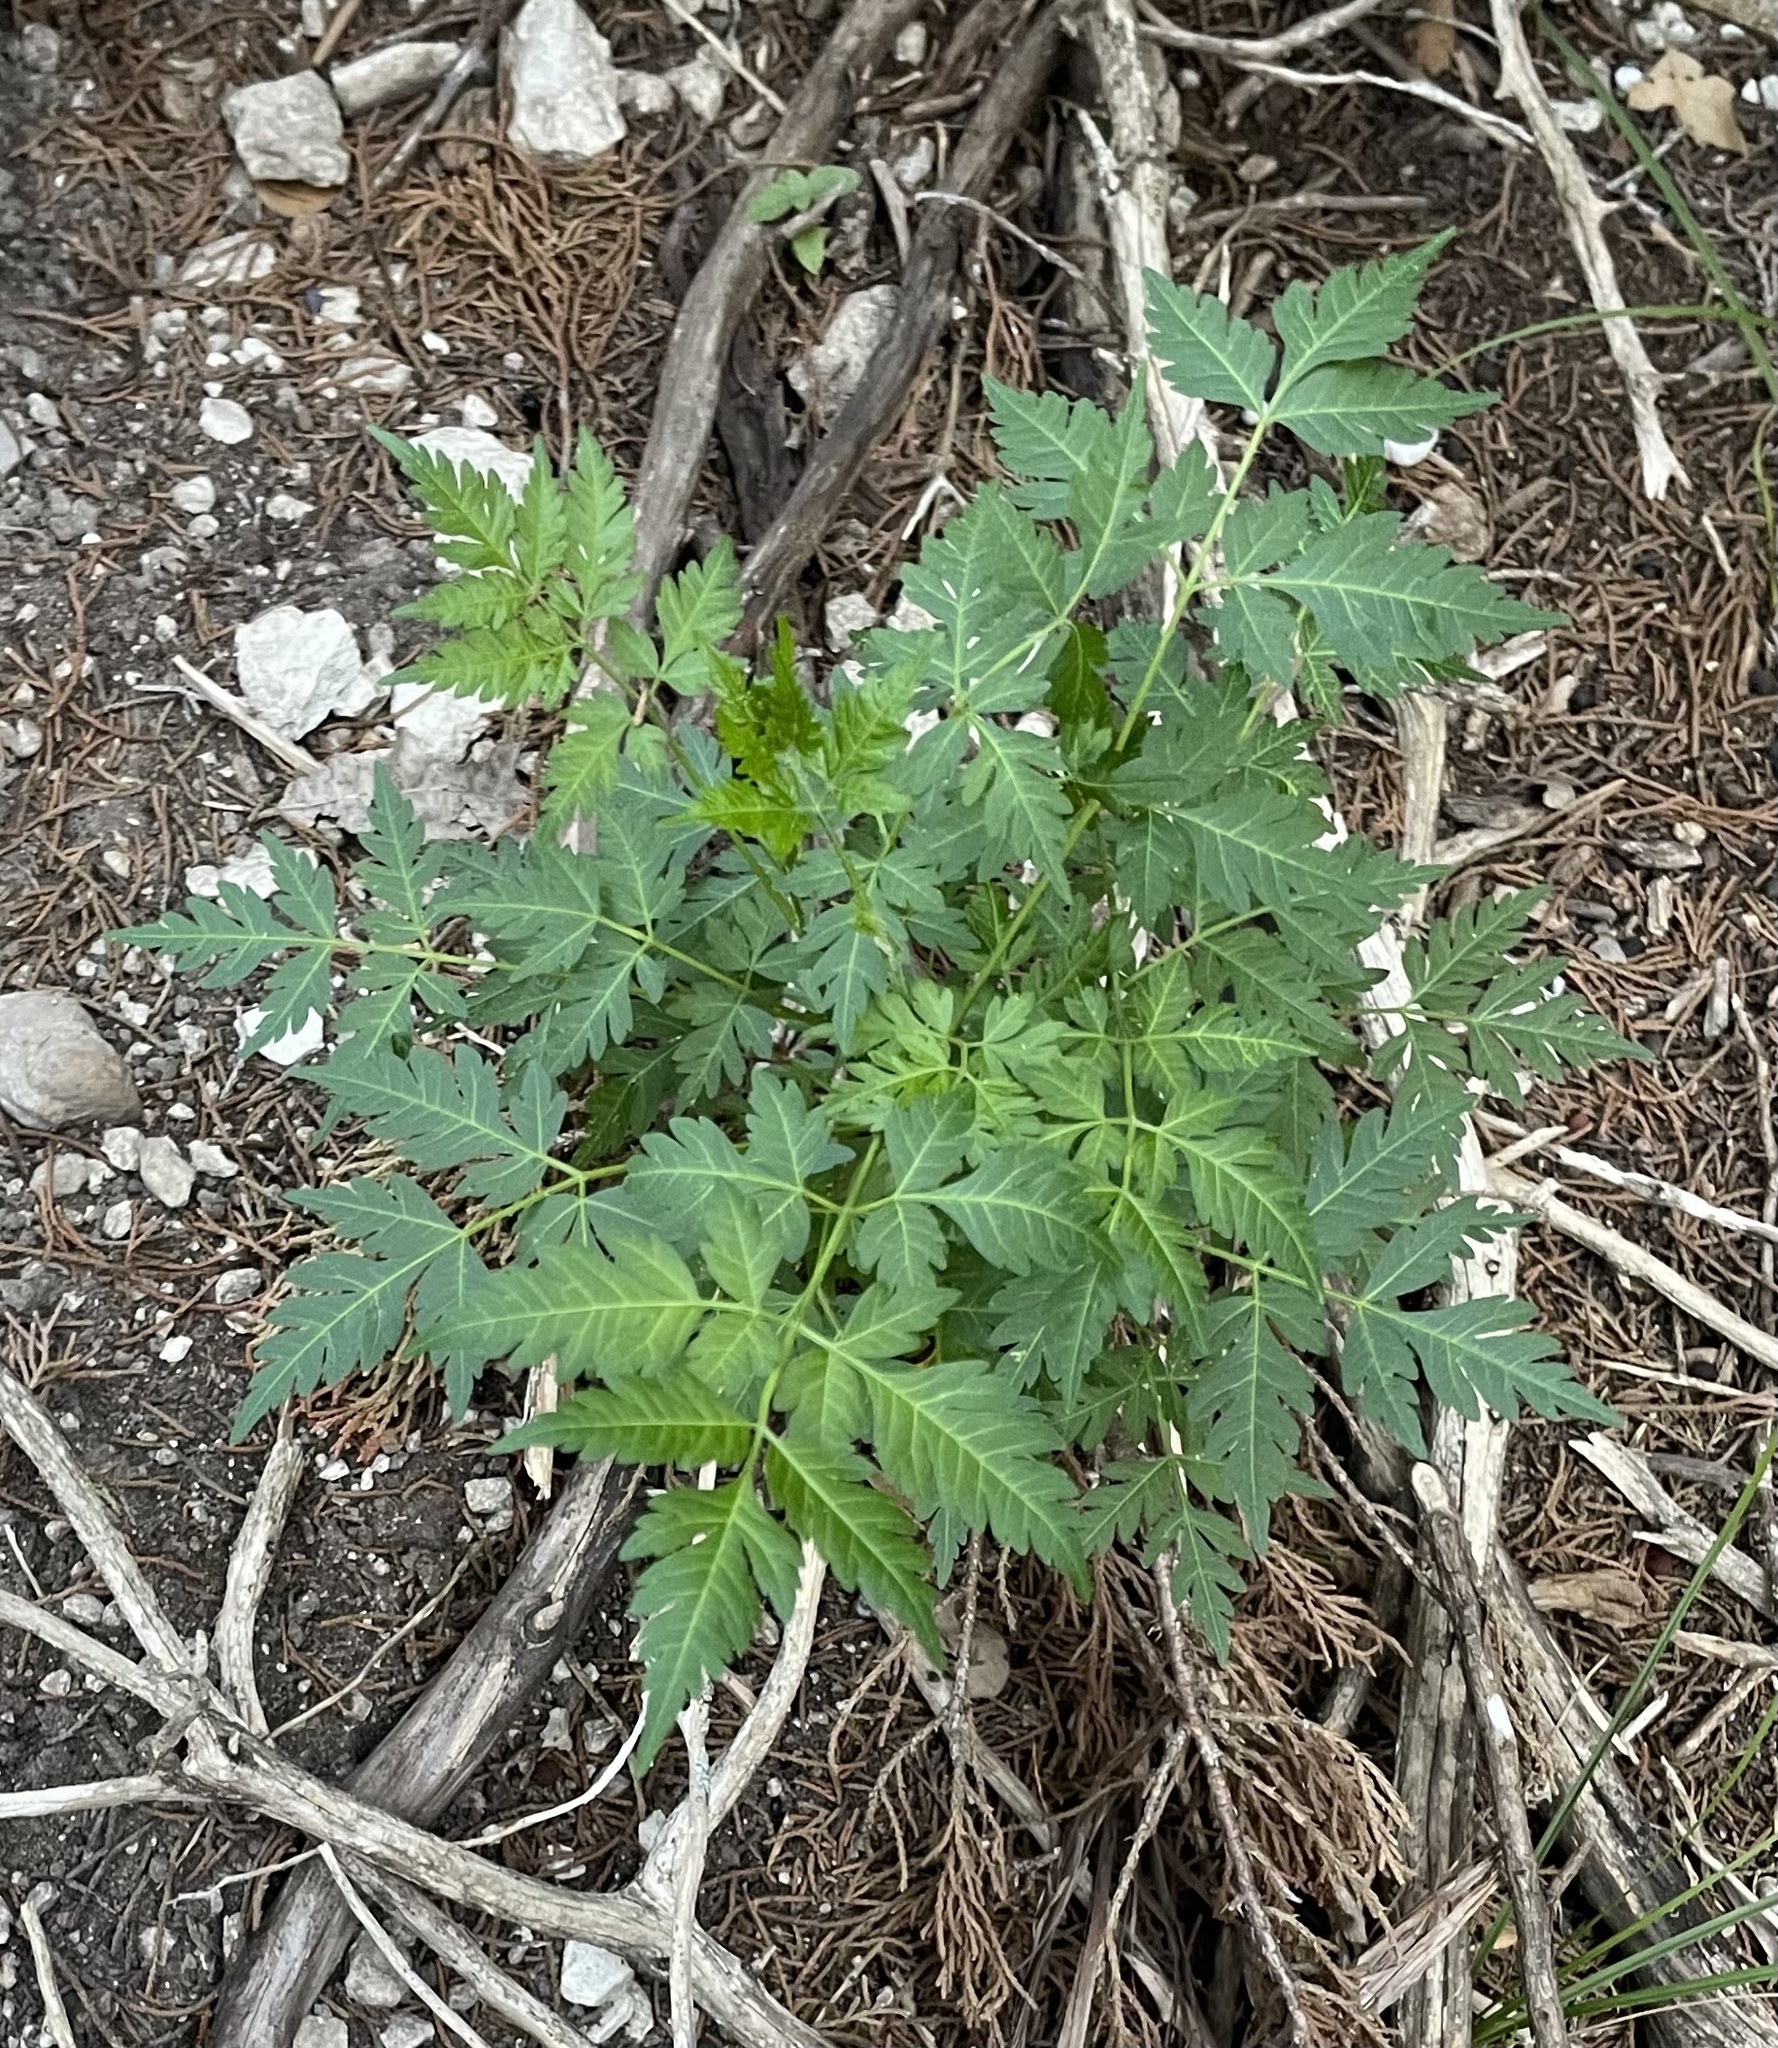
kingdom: Plantae
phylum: Tracheophyta
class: Magnoliopsida
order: Sapindales
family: Meliaceae
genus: Melia
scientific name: Melia azedarach
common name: Chinaberrytree
